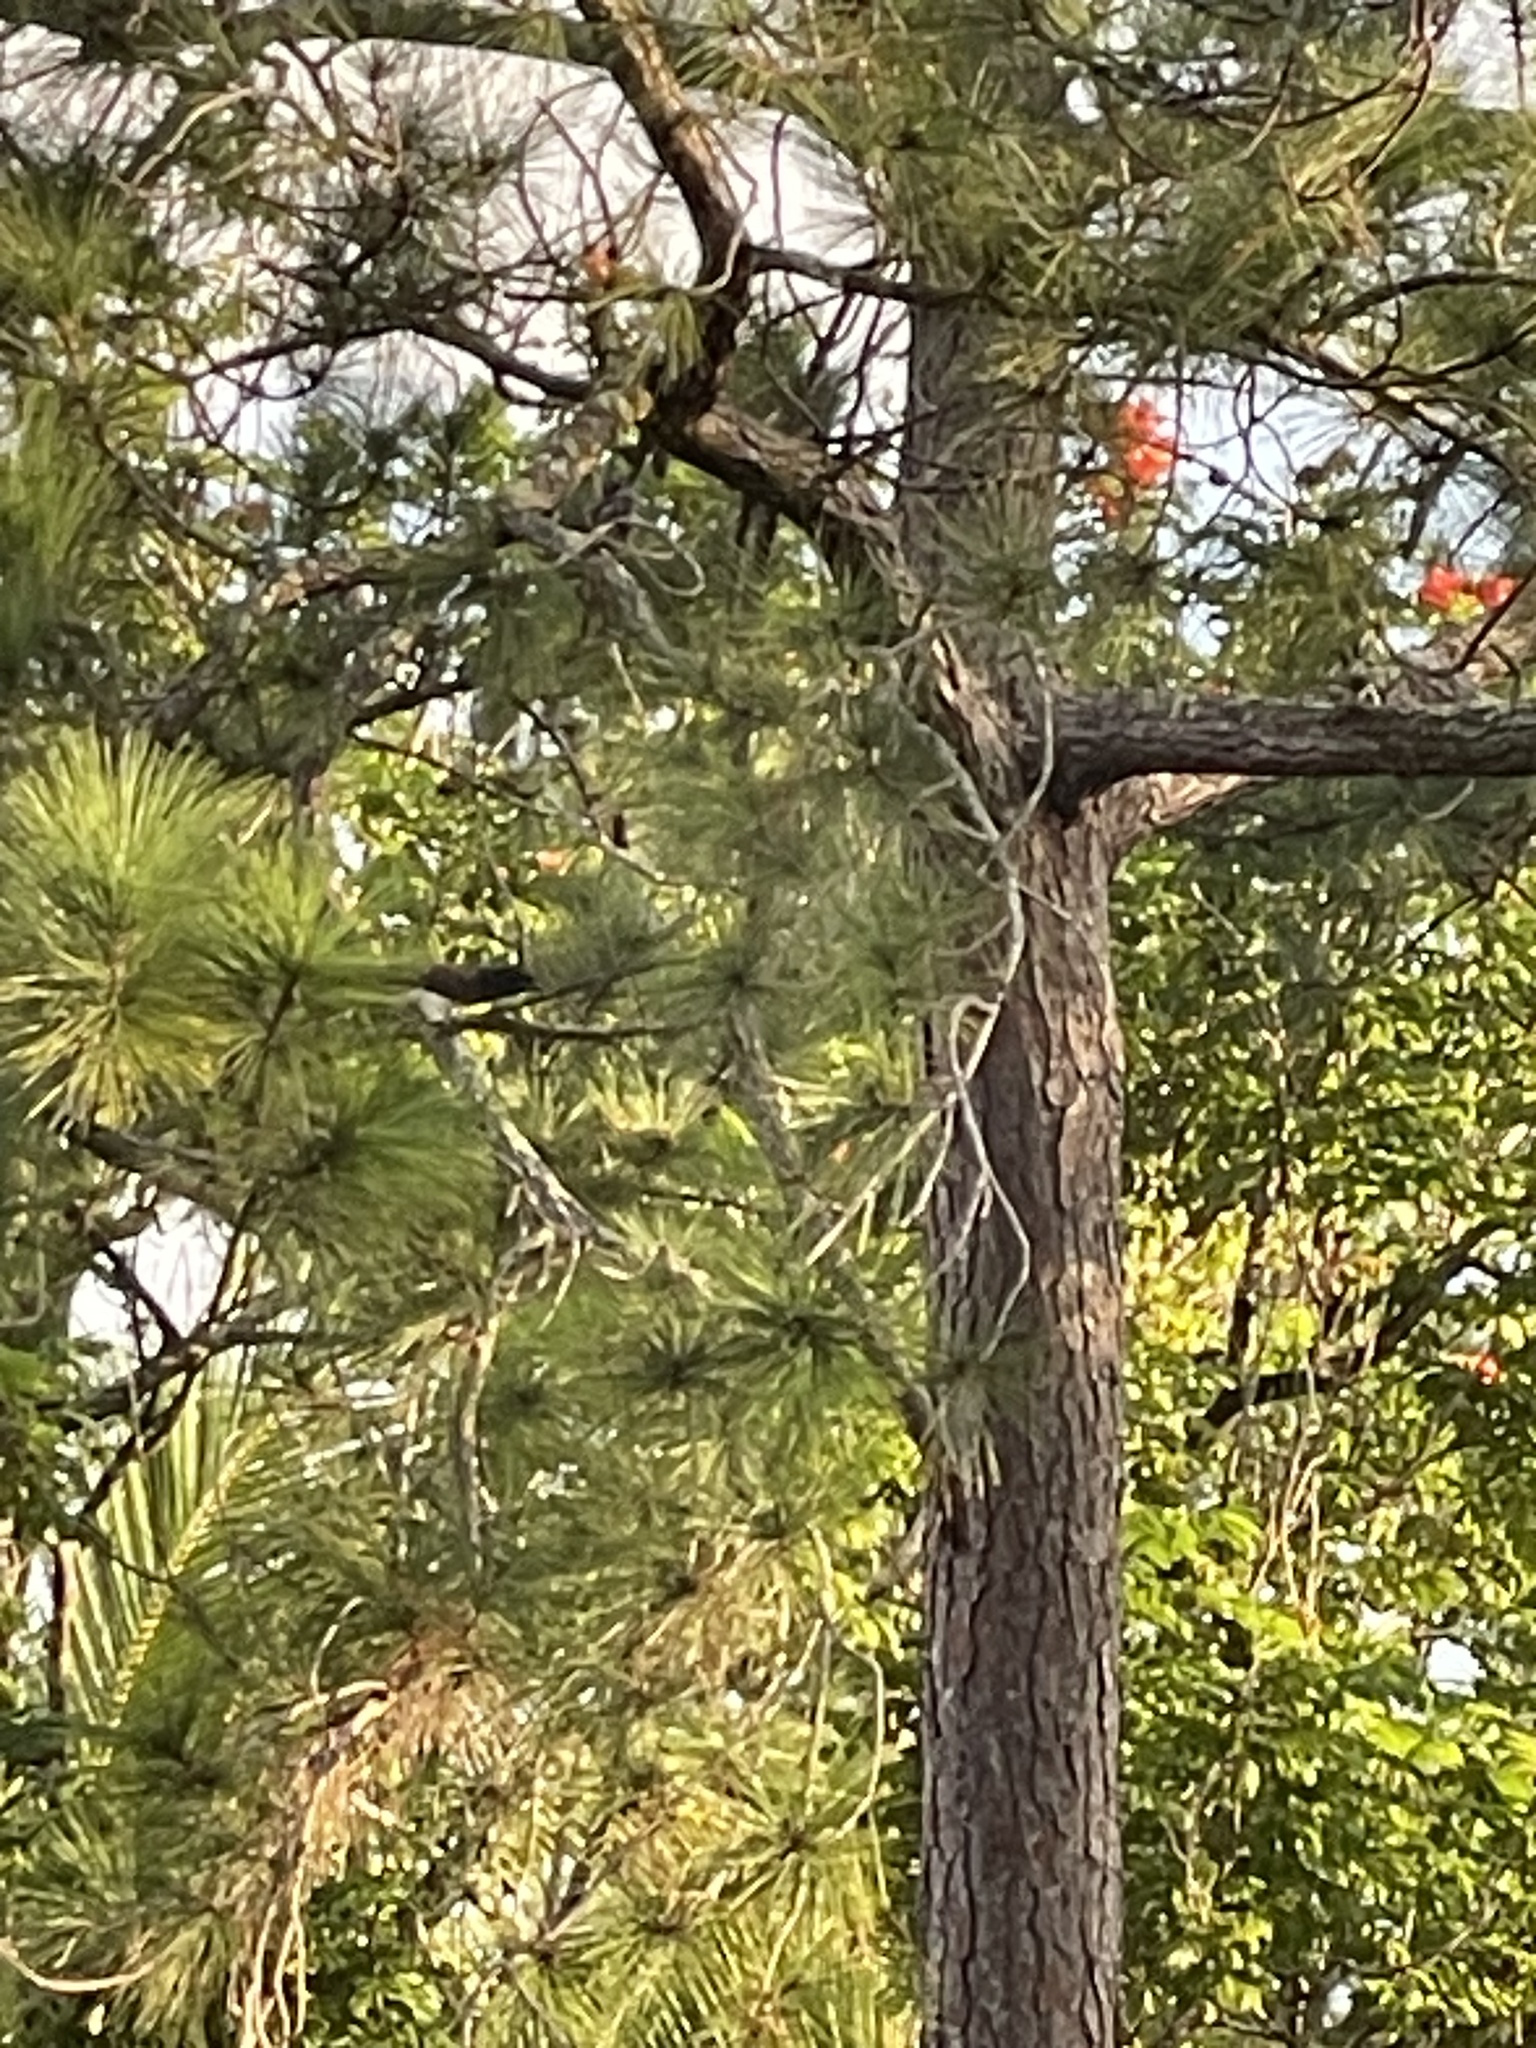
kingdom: Plantae
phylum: Tracheophyta
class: Pinopsida
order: Pinales
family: Pinaceae
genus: Pinus
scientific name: Pinus caribaea
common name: Caribbean pine
